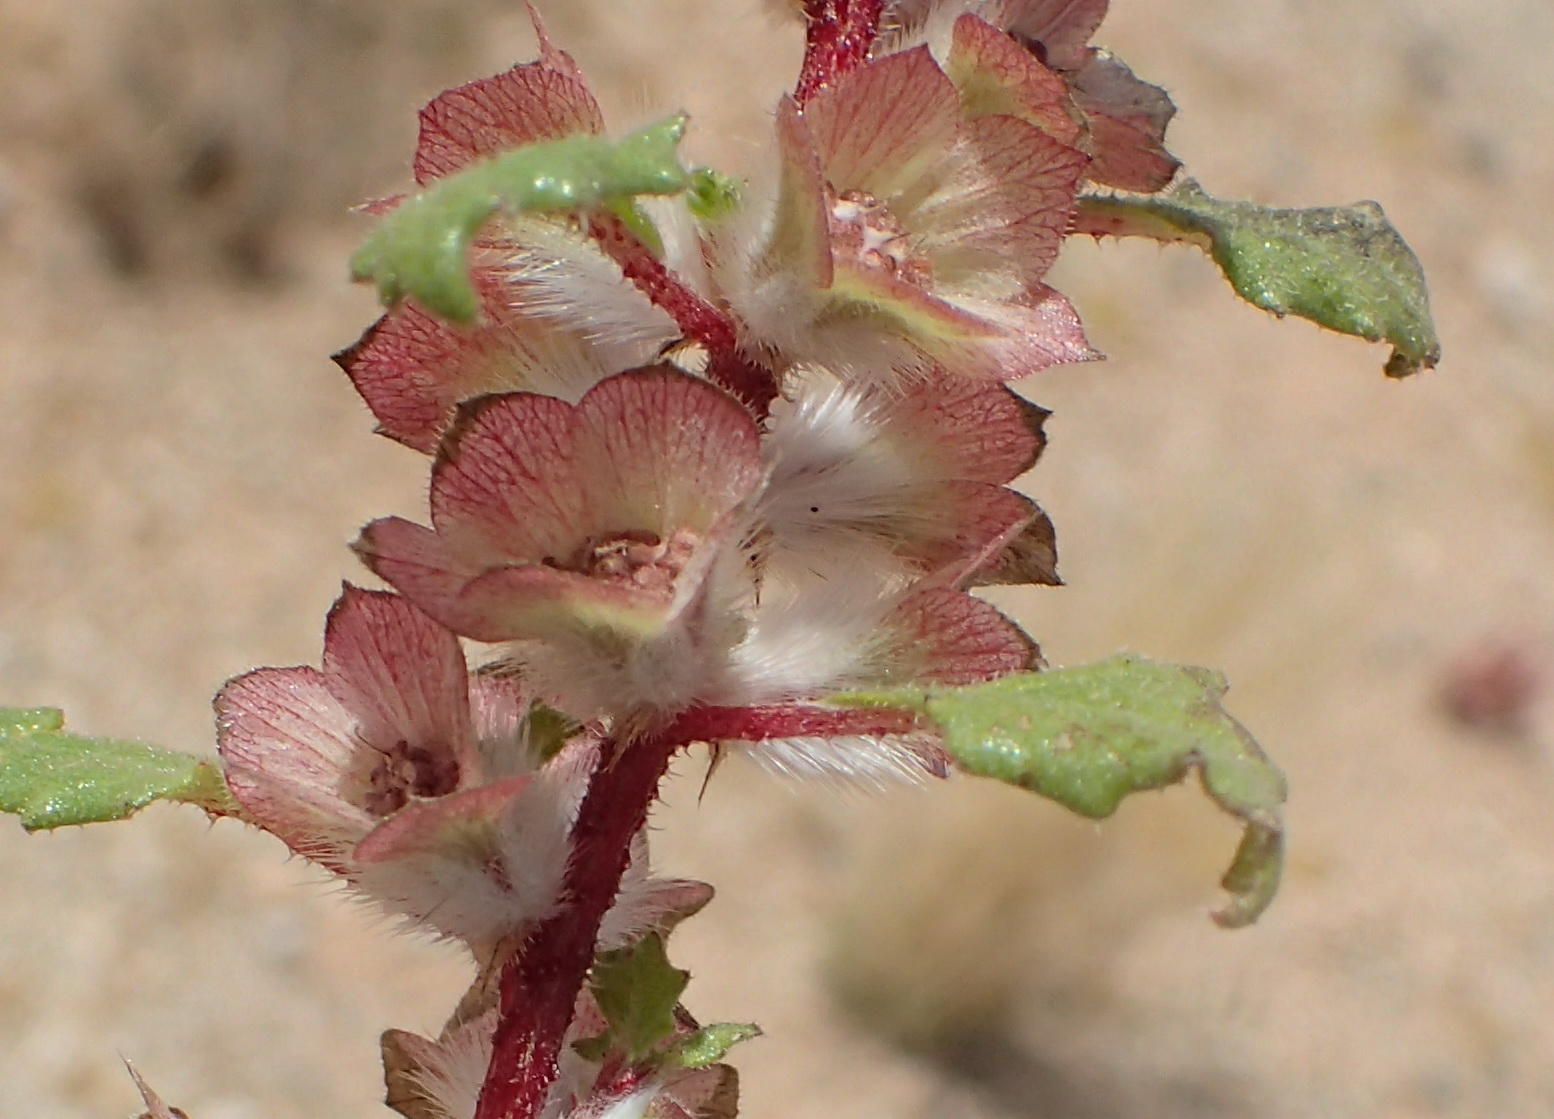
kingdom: Plantae
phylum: Tracheophyta
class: Magnoliopsida
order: Rosales
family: Urticaceae
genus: Forsskaolea
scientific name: Forsskaolea candida
